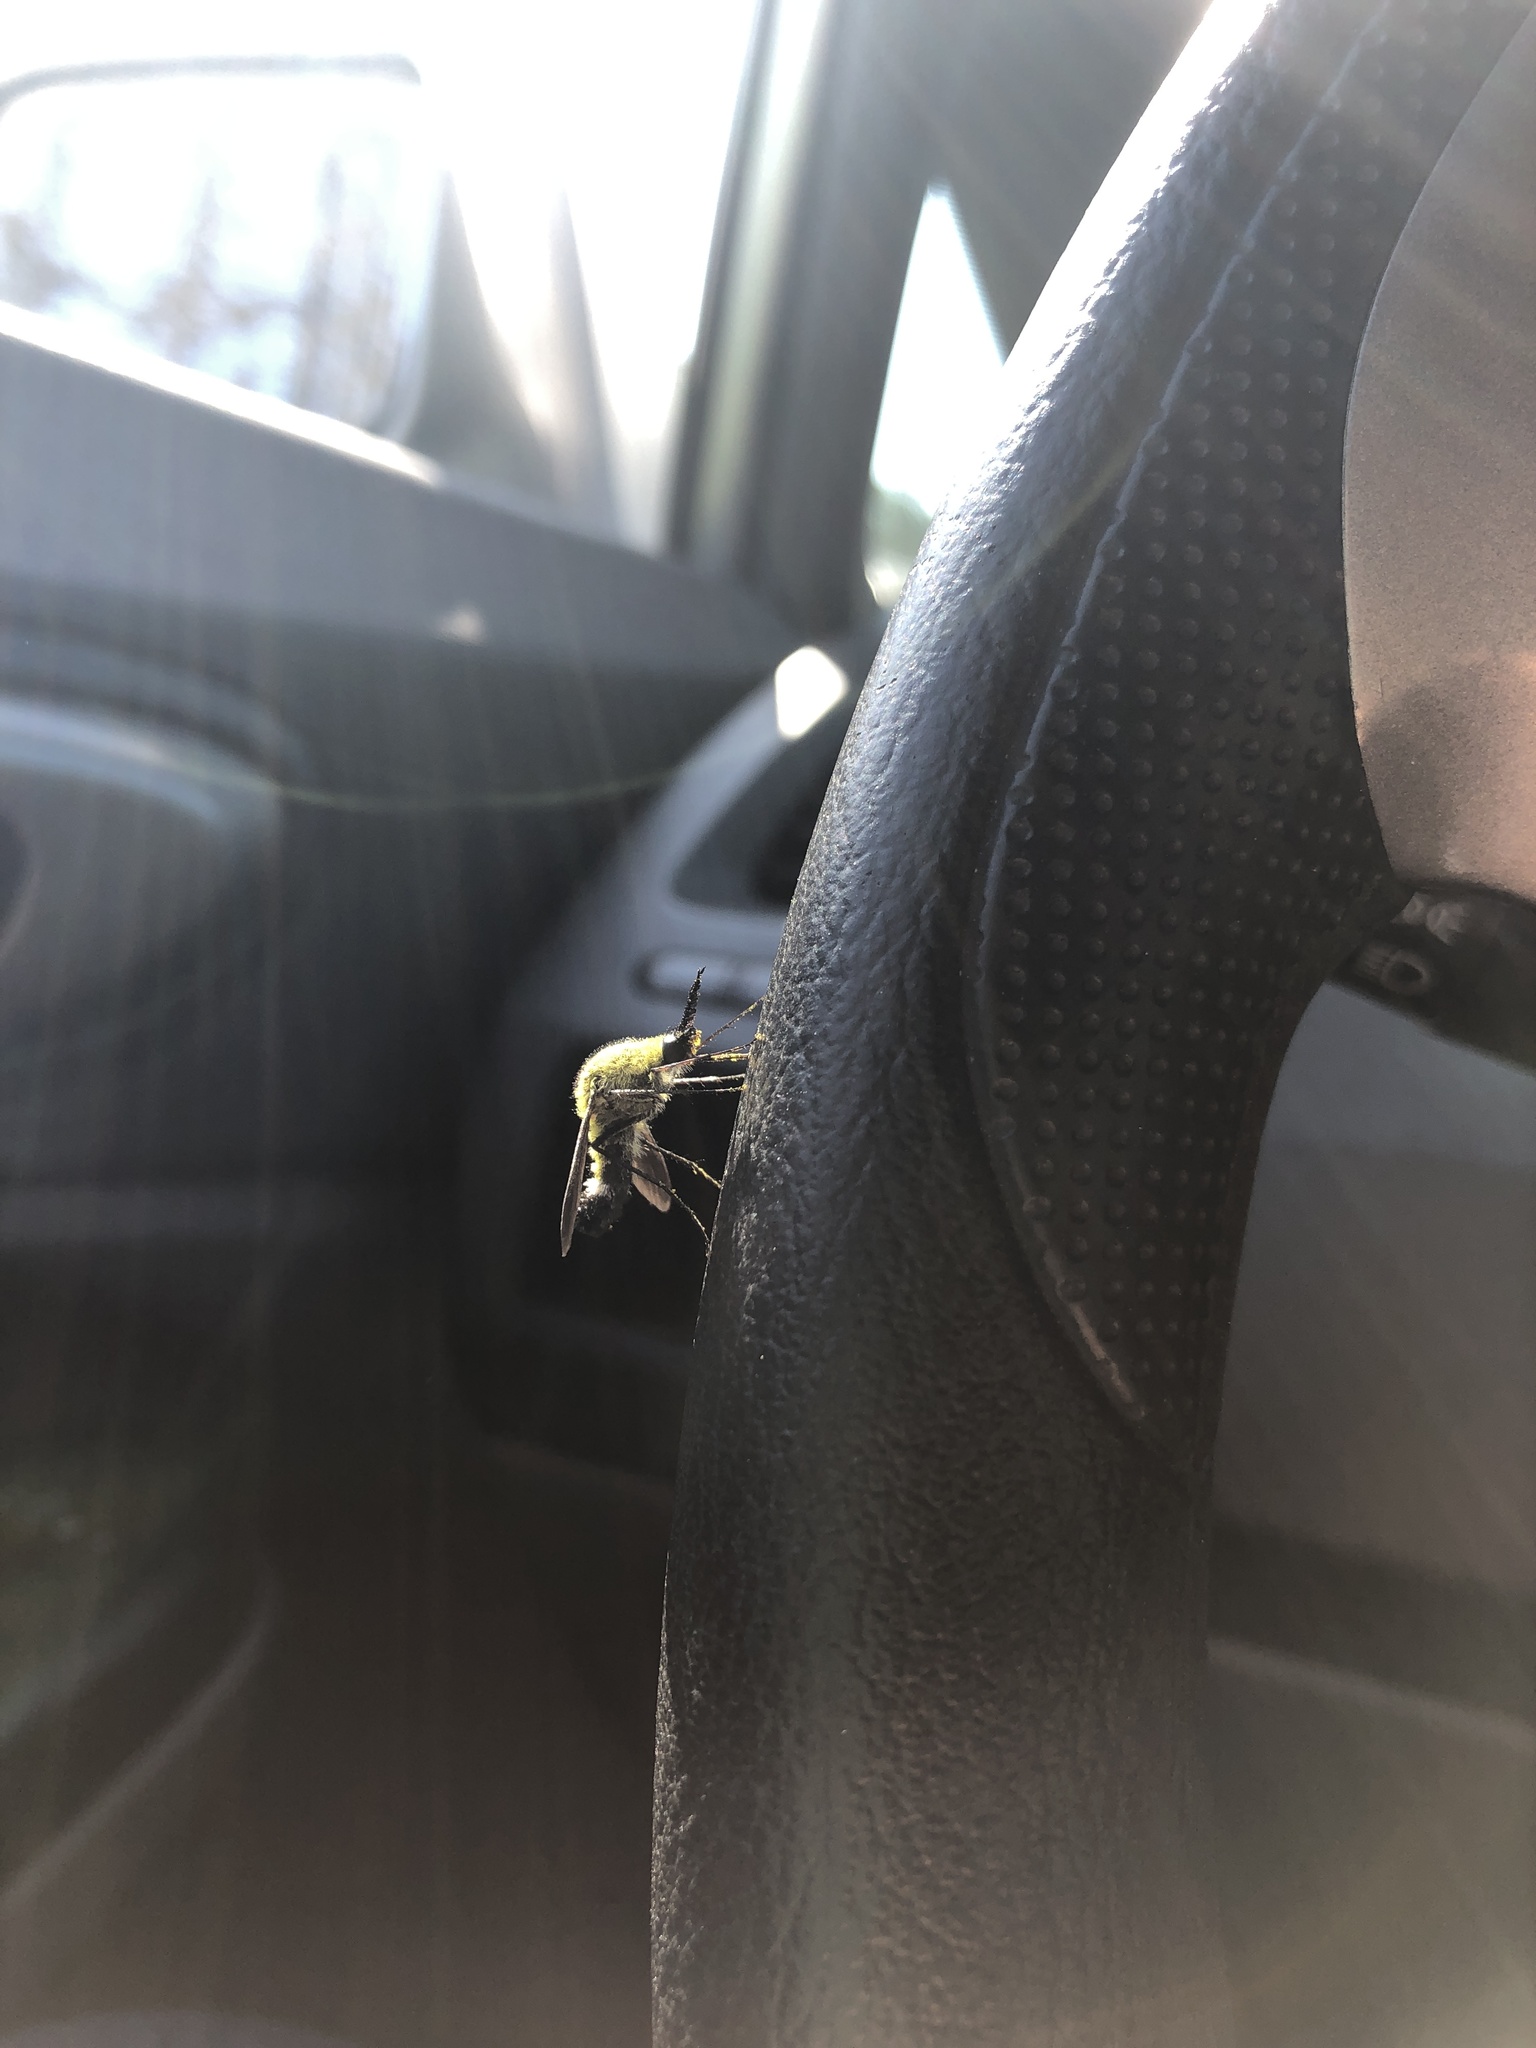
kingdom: Animalia
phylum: Arthropoda
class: Insecta
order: Diptera
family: Bombyliidae
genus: Lepidophora
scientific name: Lepidophora lutea
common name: Hunchback bee fly
